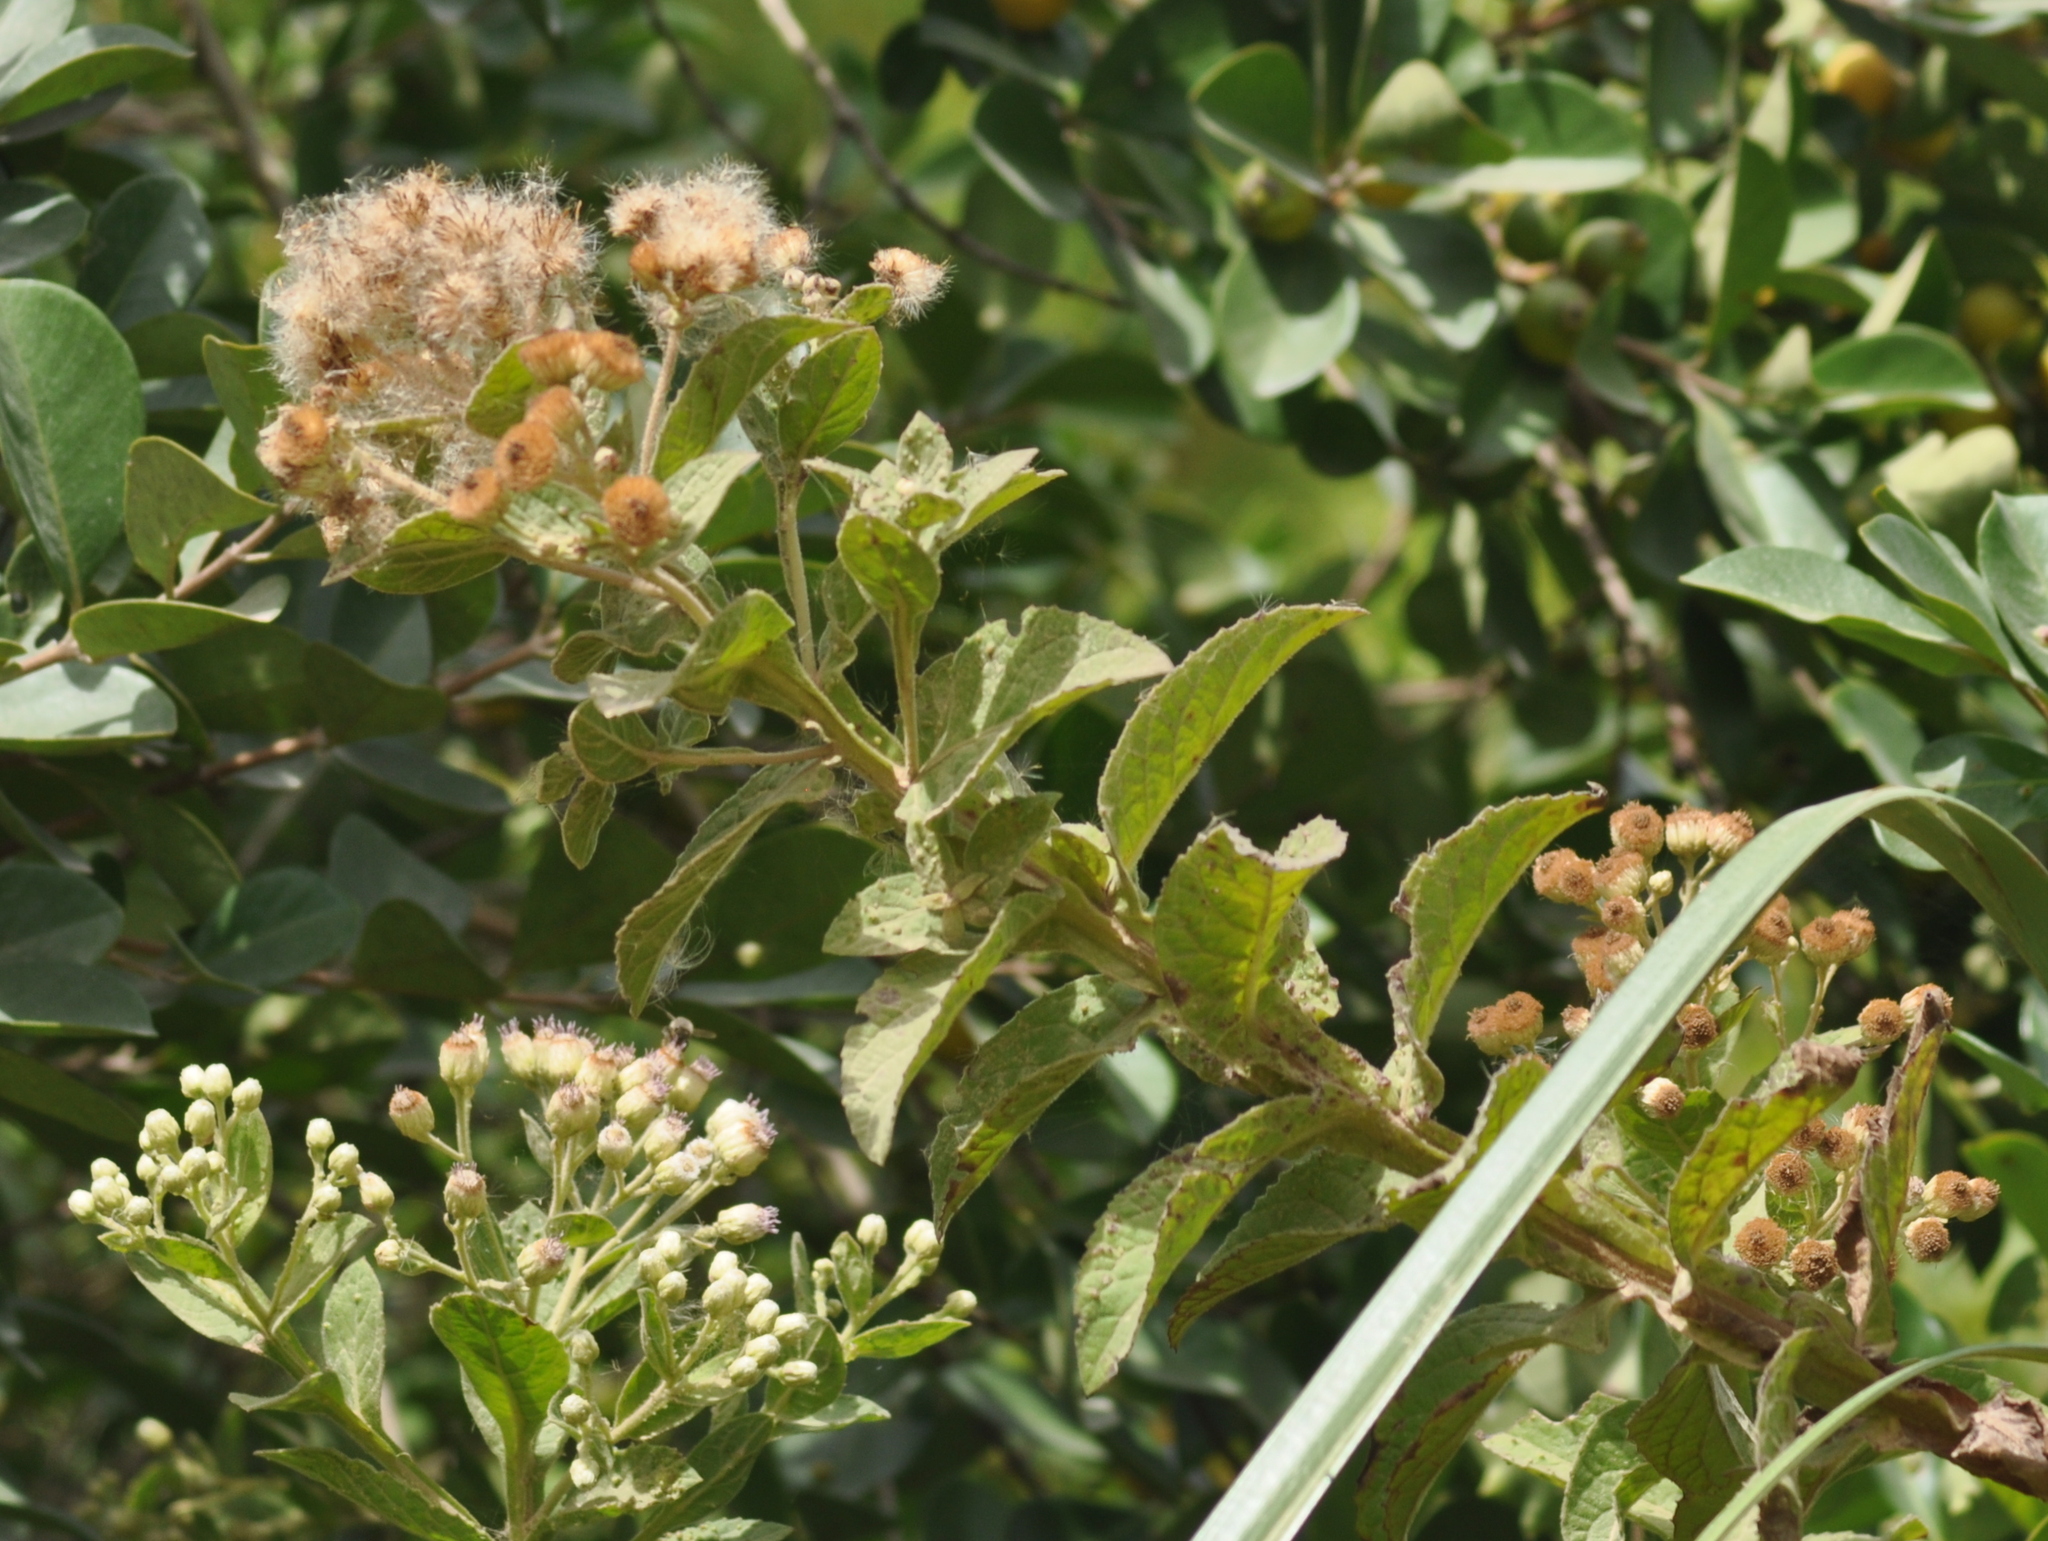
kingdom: Plantae
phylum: Tracheophyta
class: Magnoliopsida
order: Asterales
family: Asteraceae
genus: Pluchea
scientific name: Pluchea laxiflora
